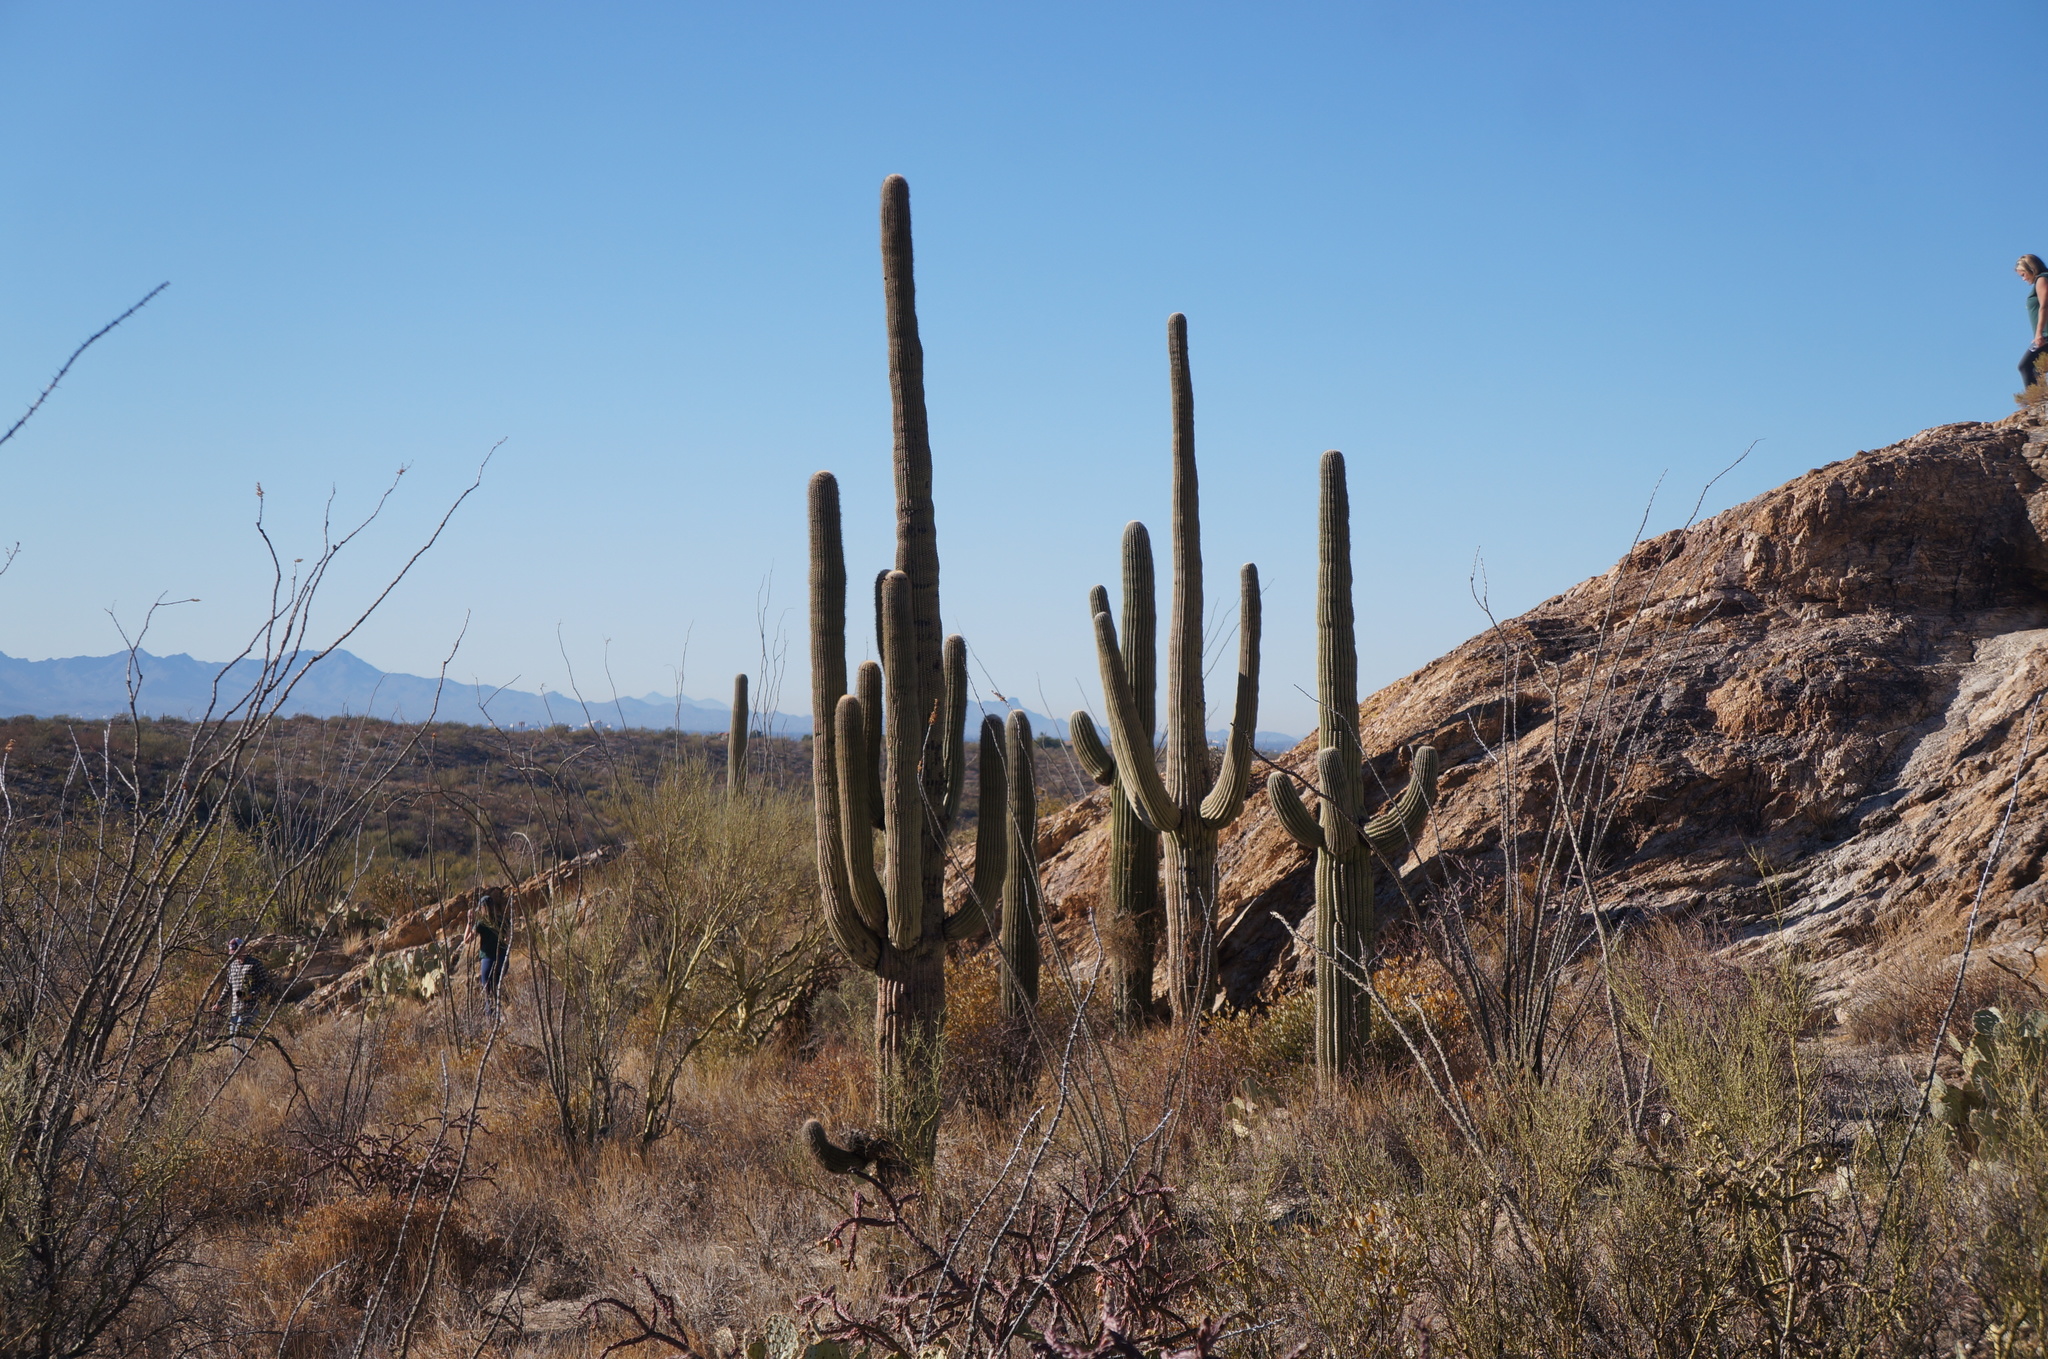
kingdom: Plantae
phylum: Tracheophyta
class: Magnoliopsida
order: Caryophyllales
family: Cactaceae
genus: Carnegiea
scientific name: Carnegiea gigantea
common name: Saguaro
